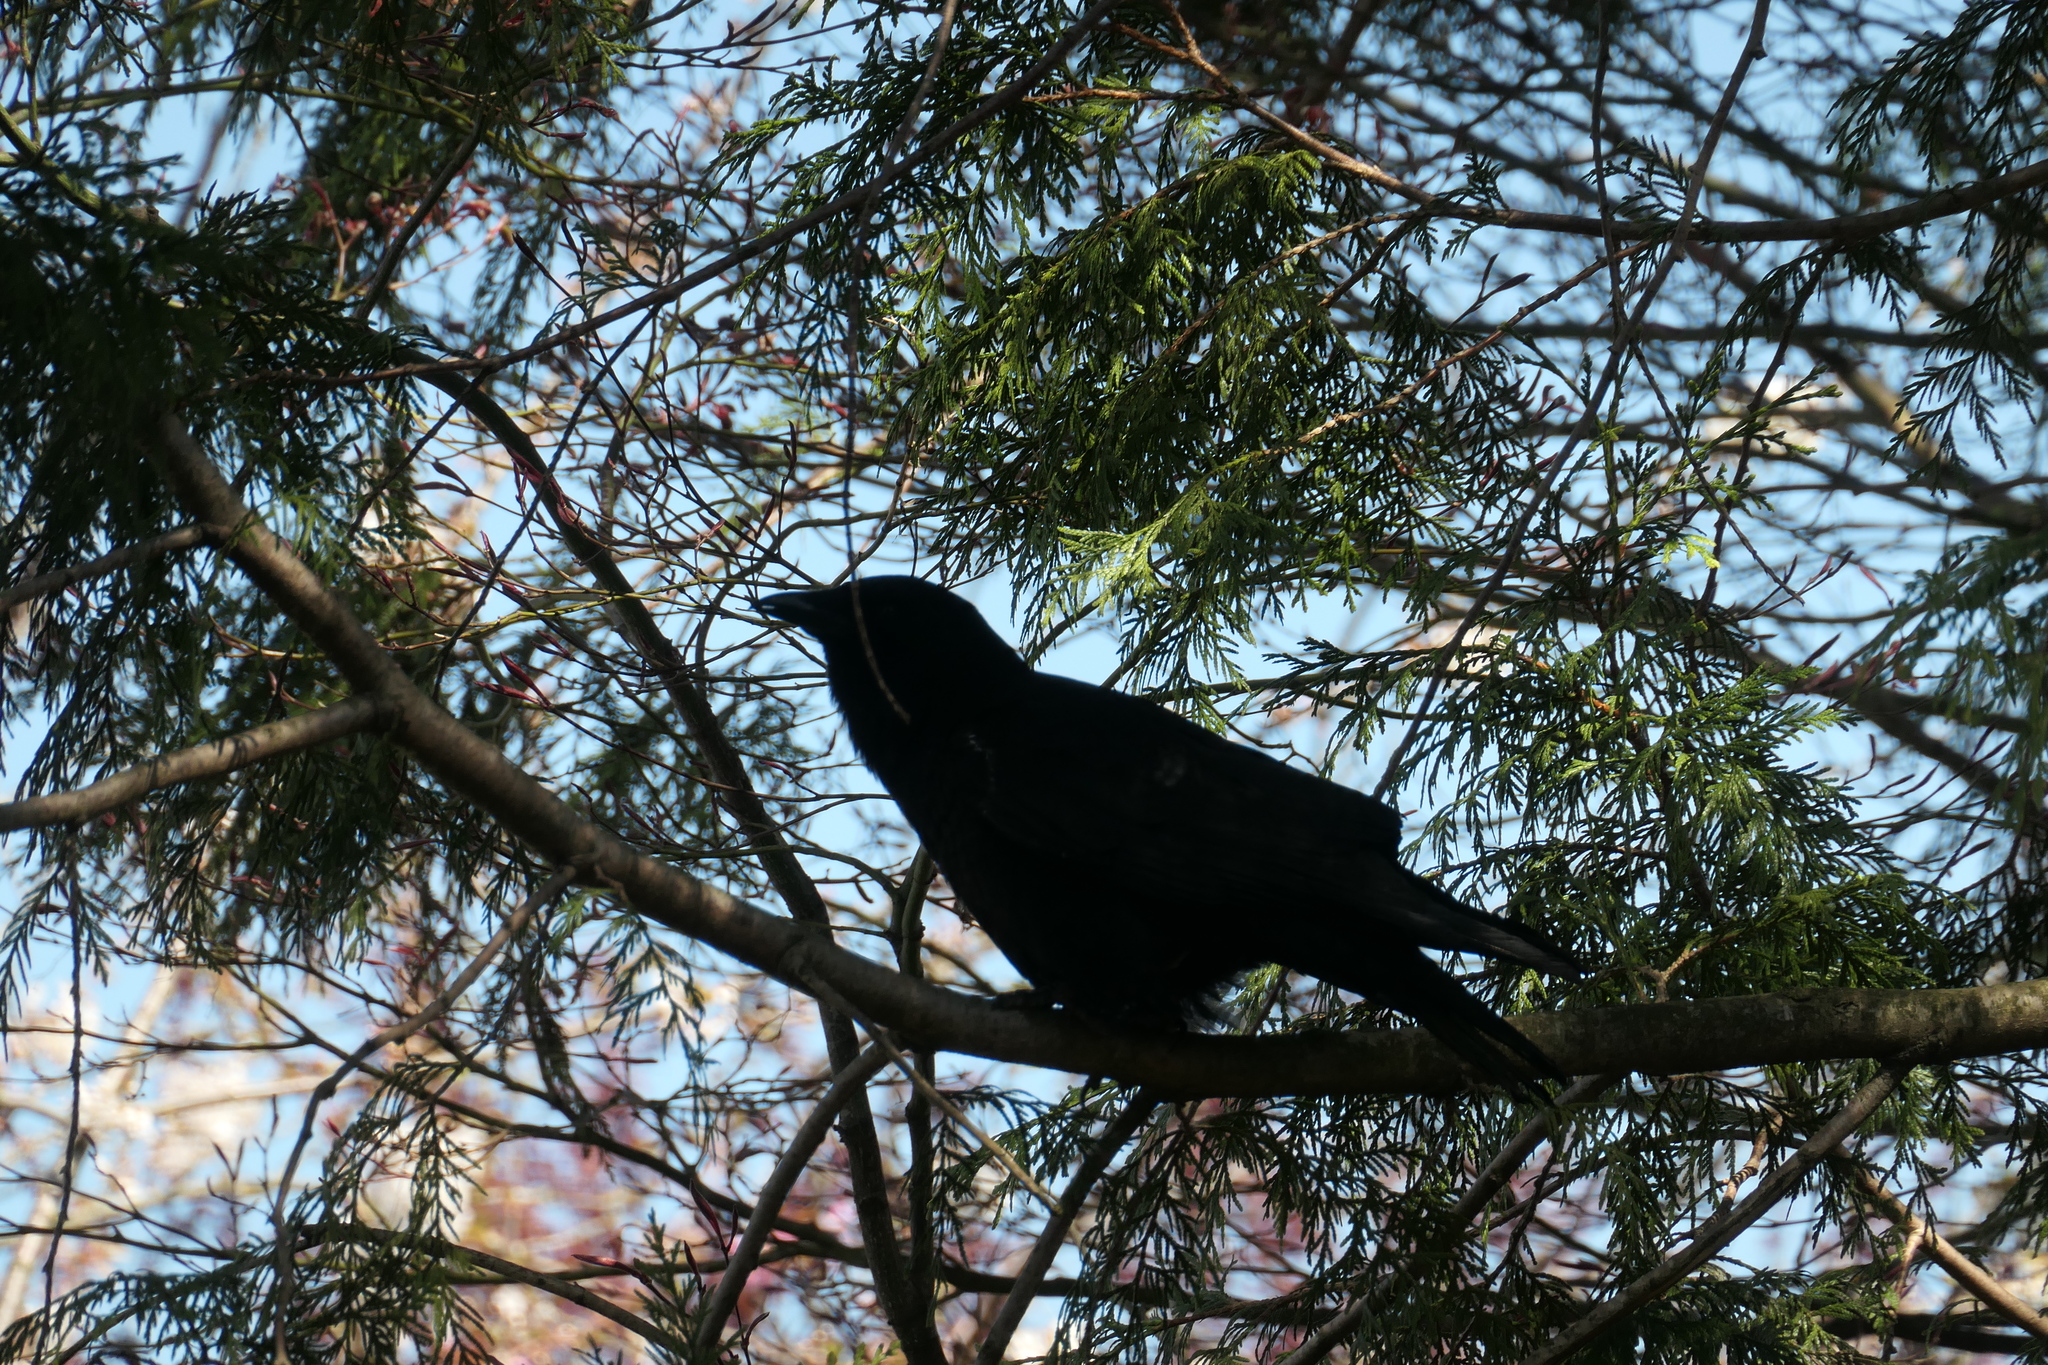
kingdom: Animalia
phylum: Chordata
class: Aves
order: Passeriformes
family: Corvidae
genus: Corvus
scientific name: Corvus brachyrhynchos
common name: American crow
